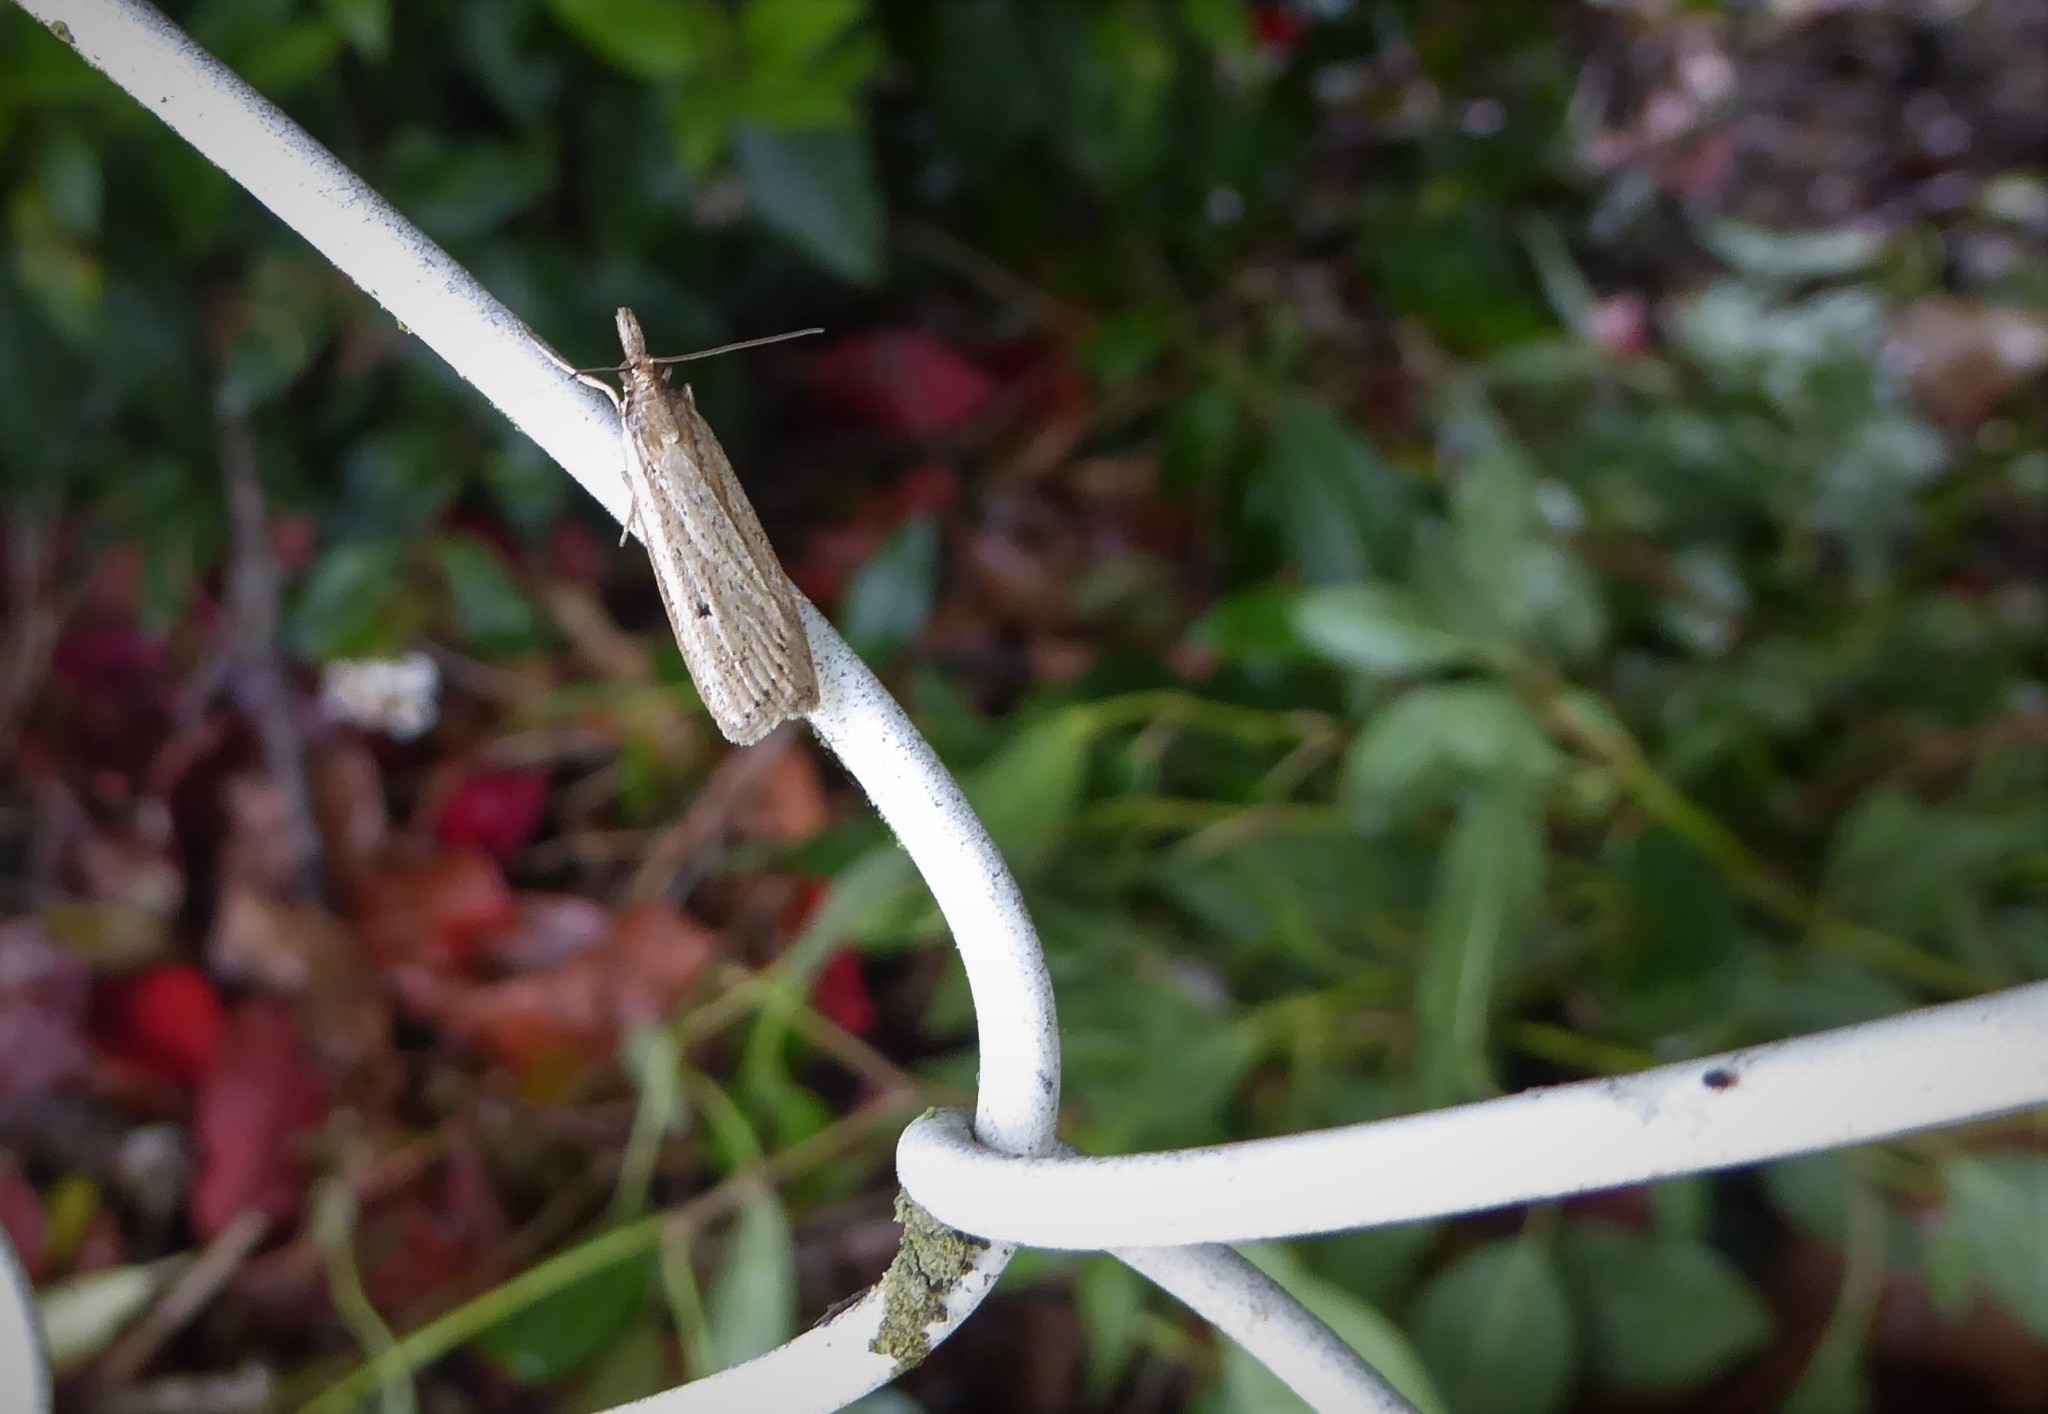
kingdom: Animalia
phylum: Arthropoda
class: Insecta
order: Lepidoptera
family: Crambidae
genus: Eudonia
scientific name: Eudonia sabulosella
